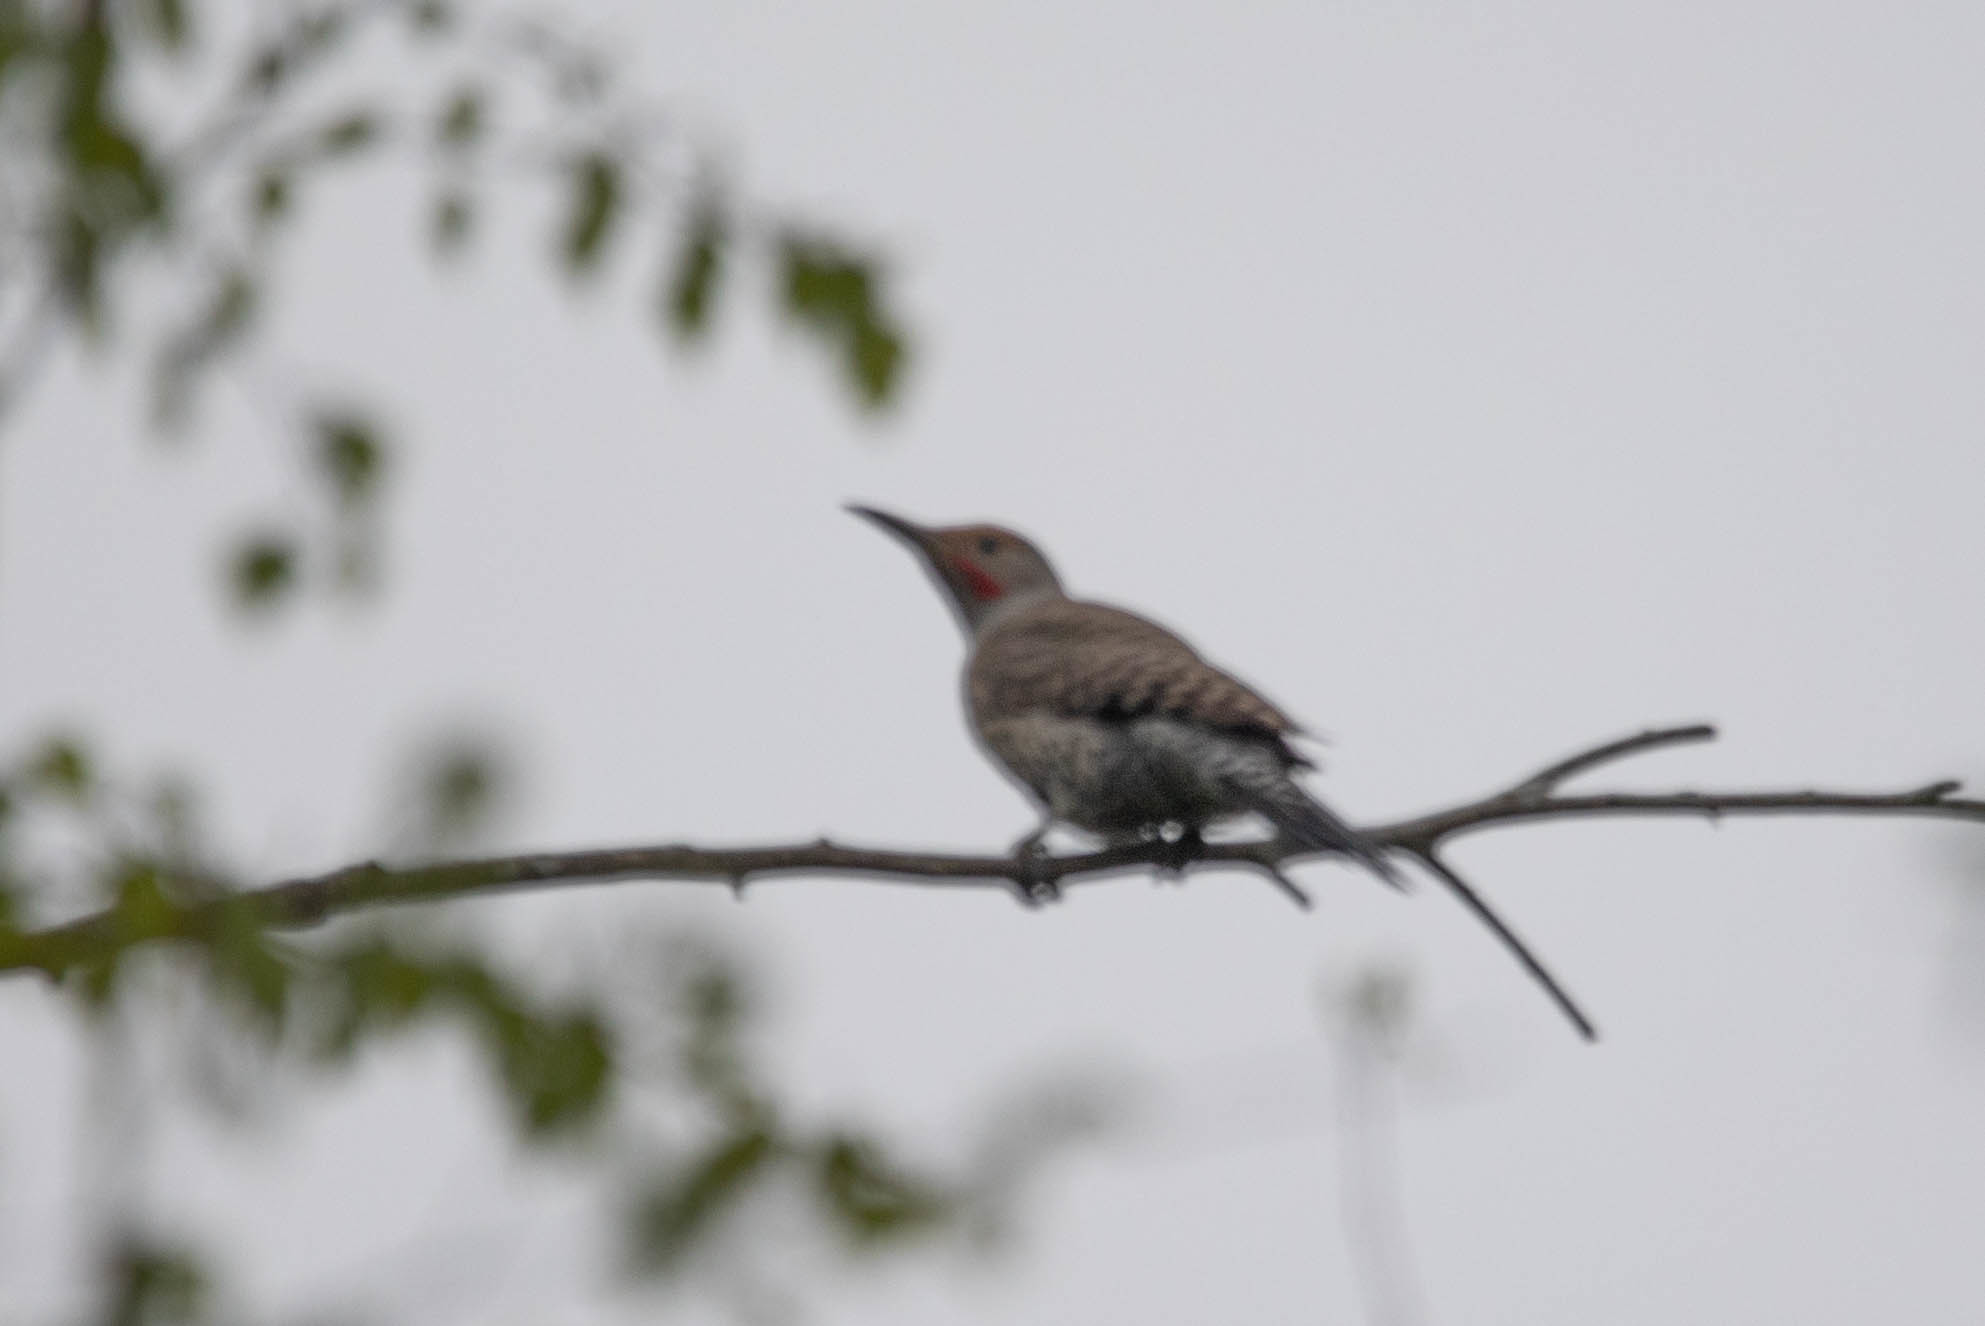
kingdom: Animalia
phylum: Chordata
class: Aves
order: Piciformes
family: Picidae
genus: Colaptes
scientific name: Colaptes auratus
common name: Northern flicker
